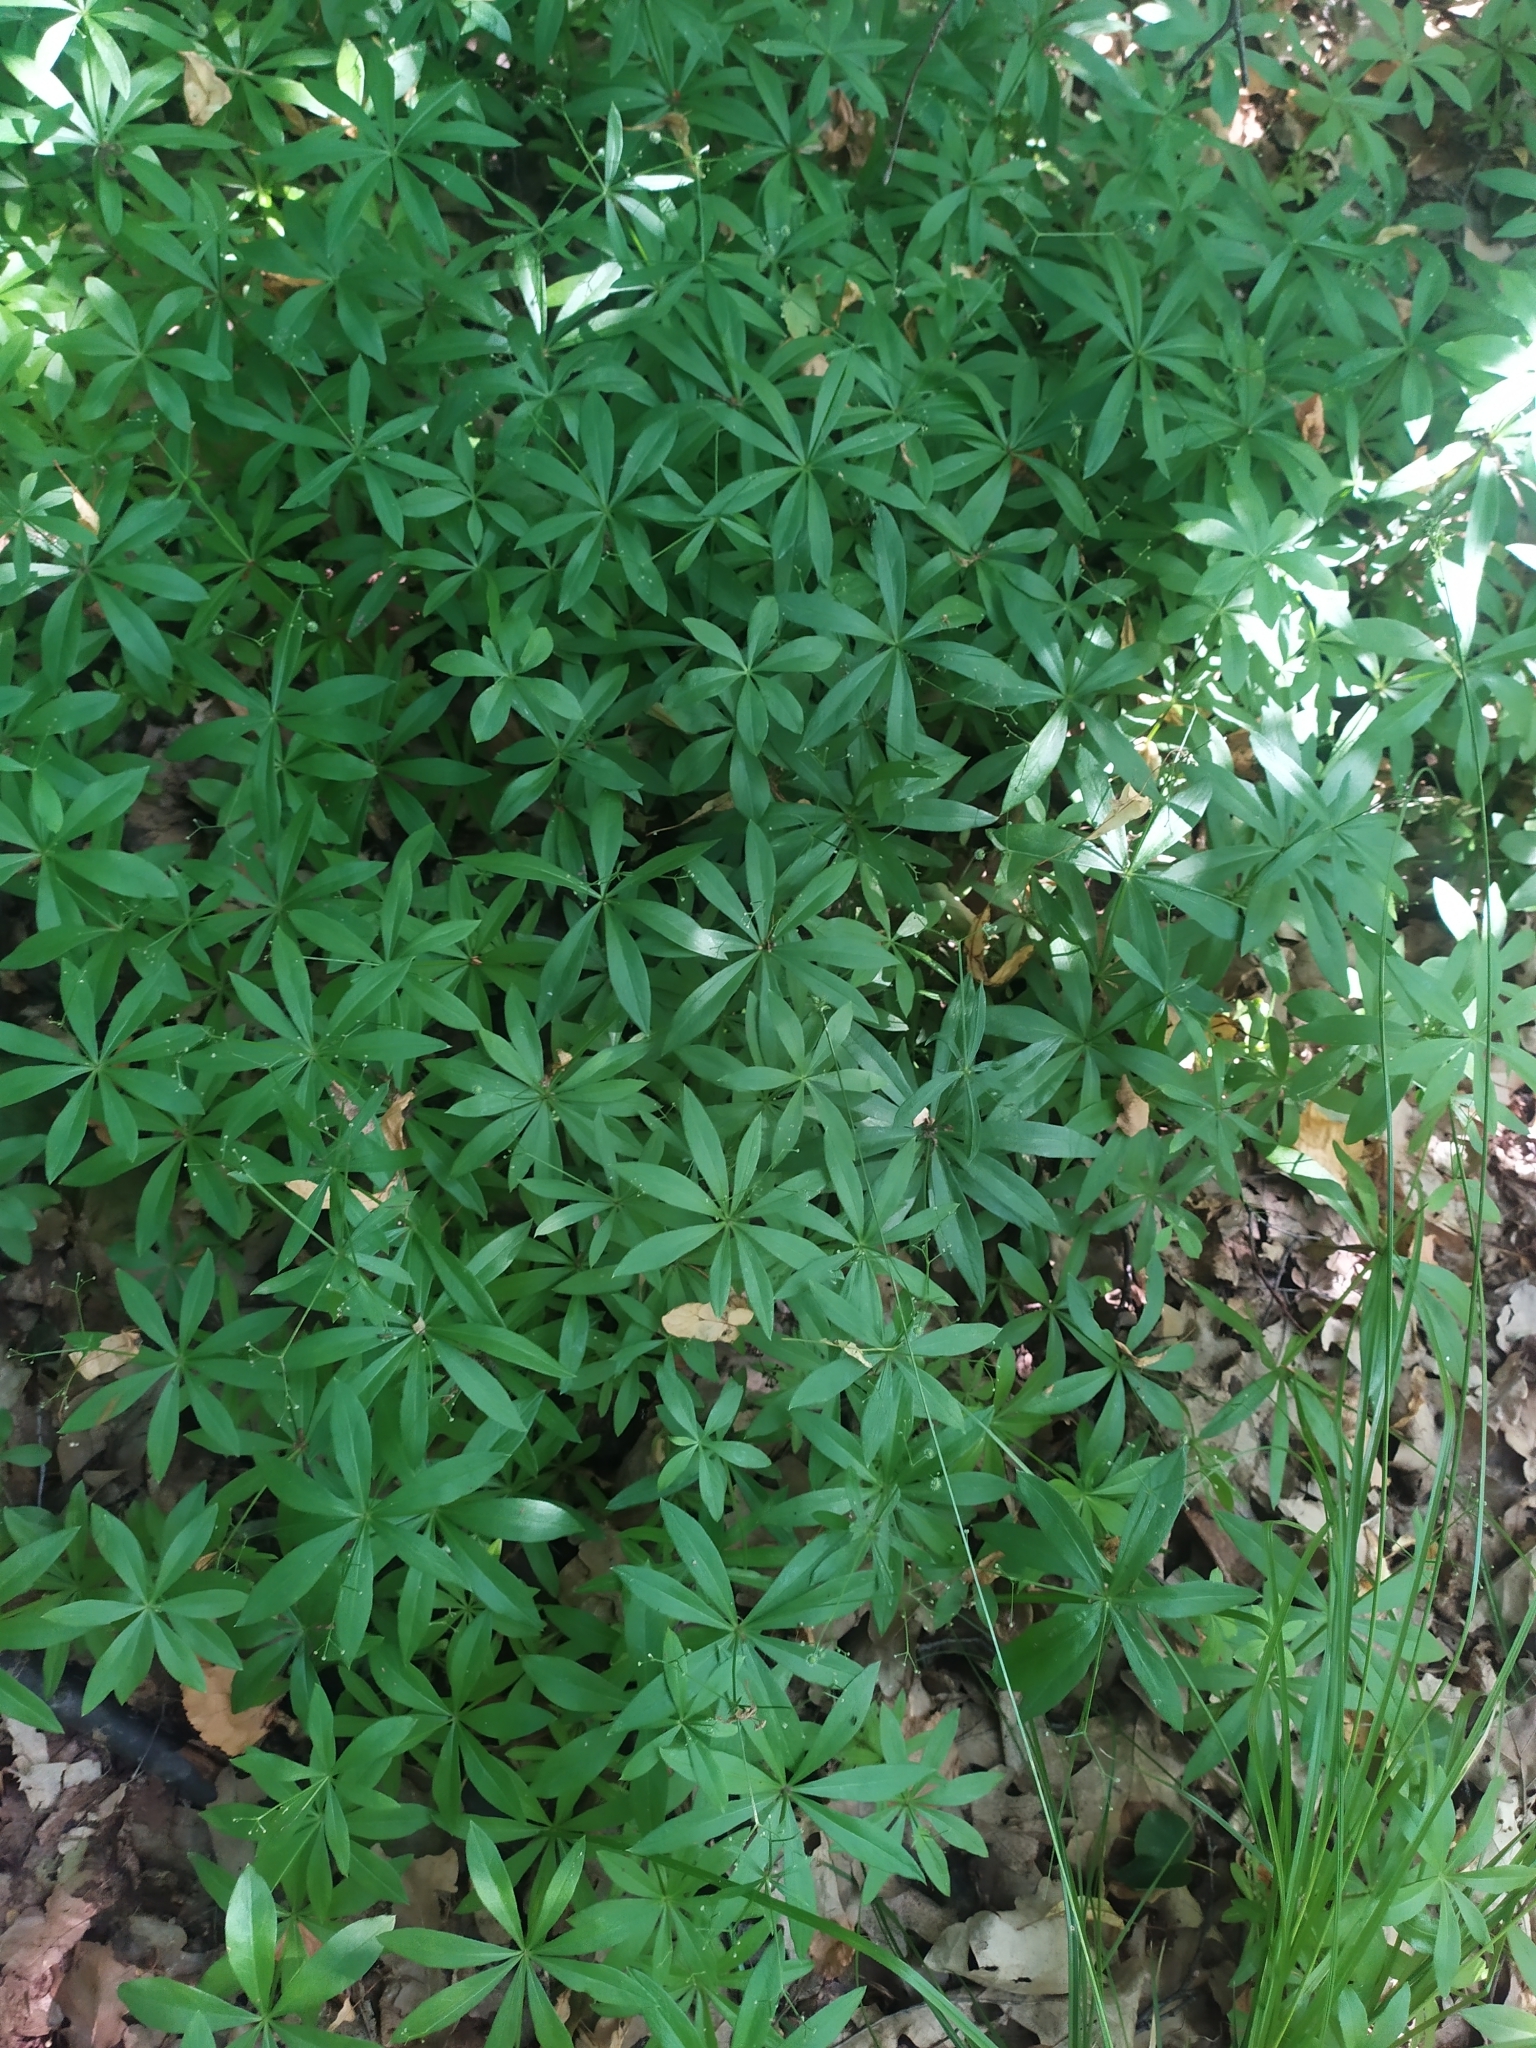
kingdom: Plantae
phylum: Tracheophyta
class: Magnoliopsida
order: Gentianales
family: Rubiaceae
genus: Galium
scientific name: Galium odoratum
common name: Sweet woodruff
